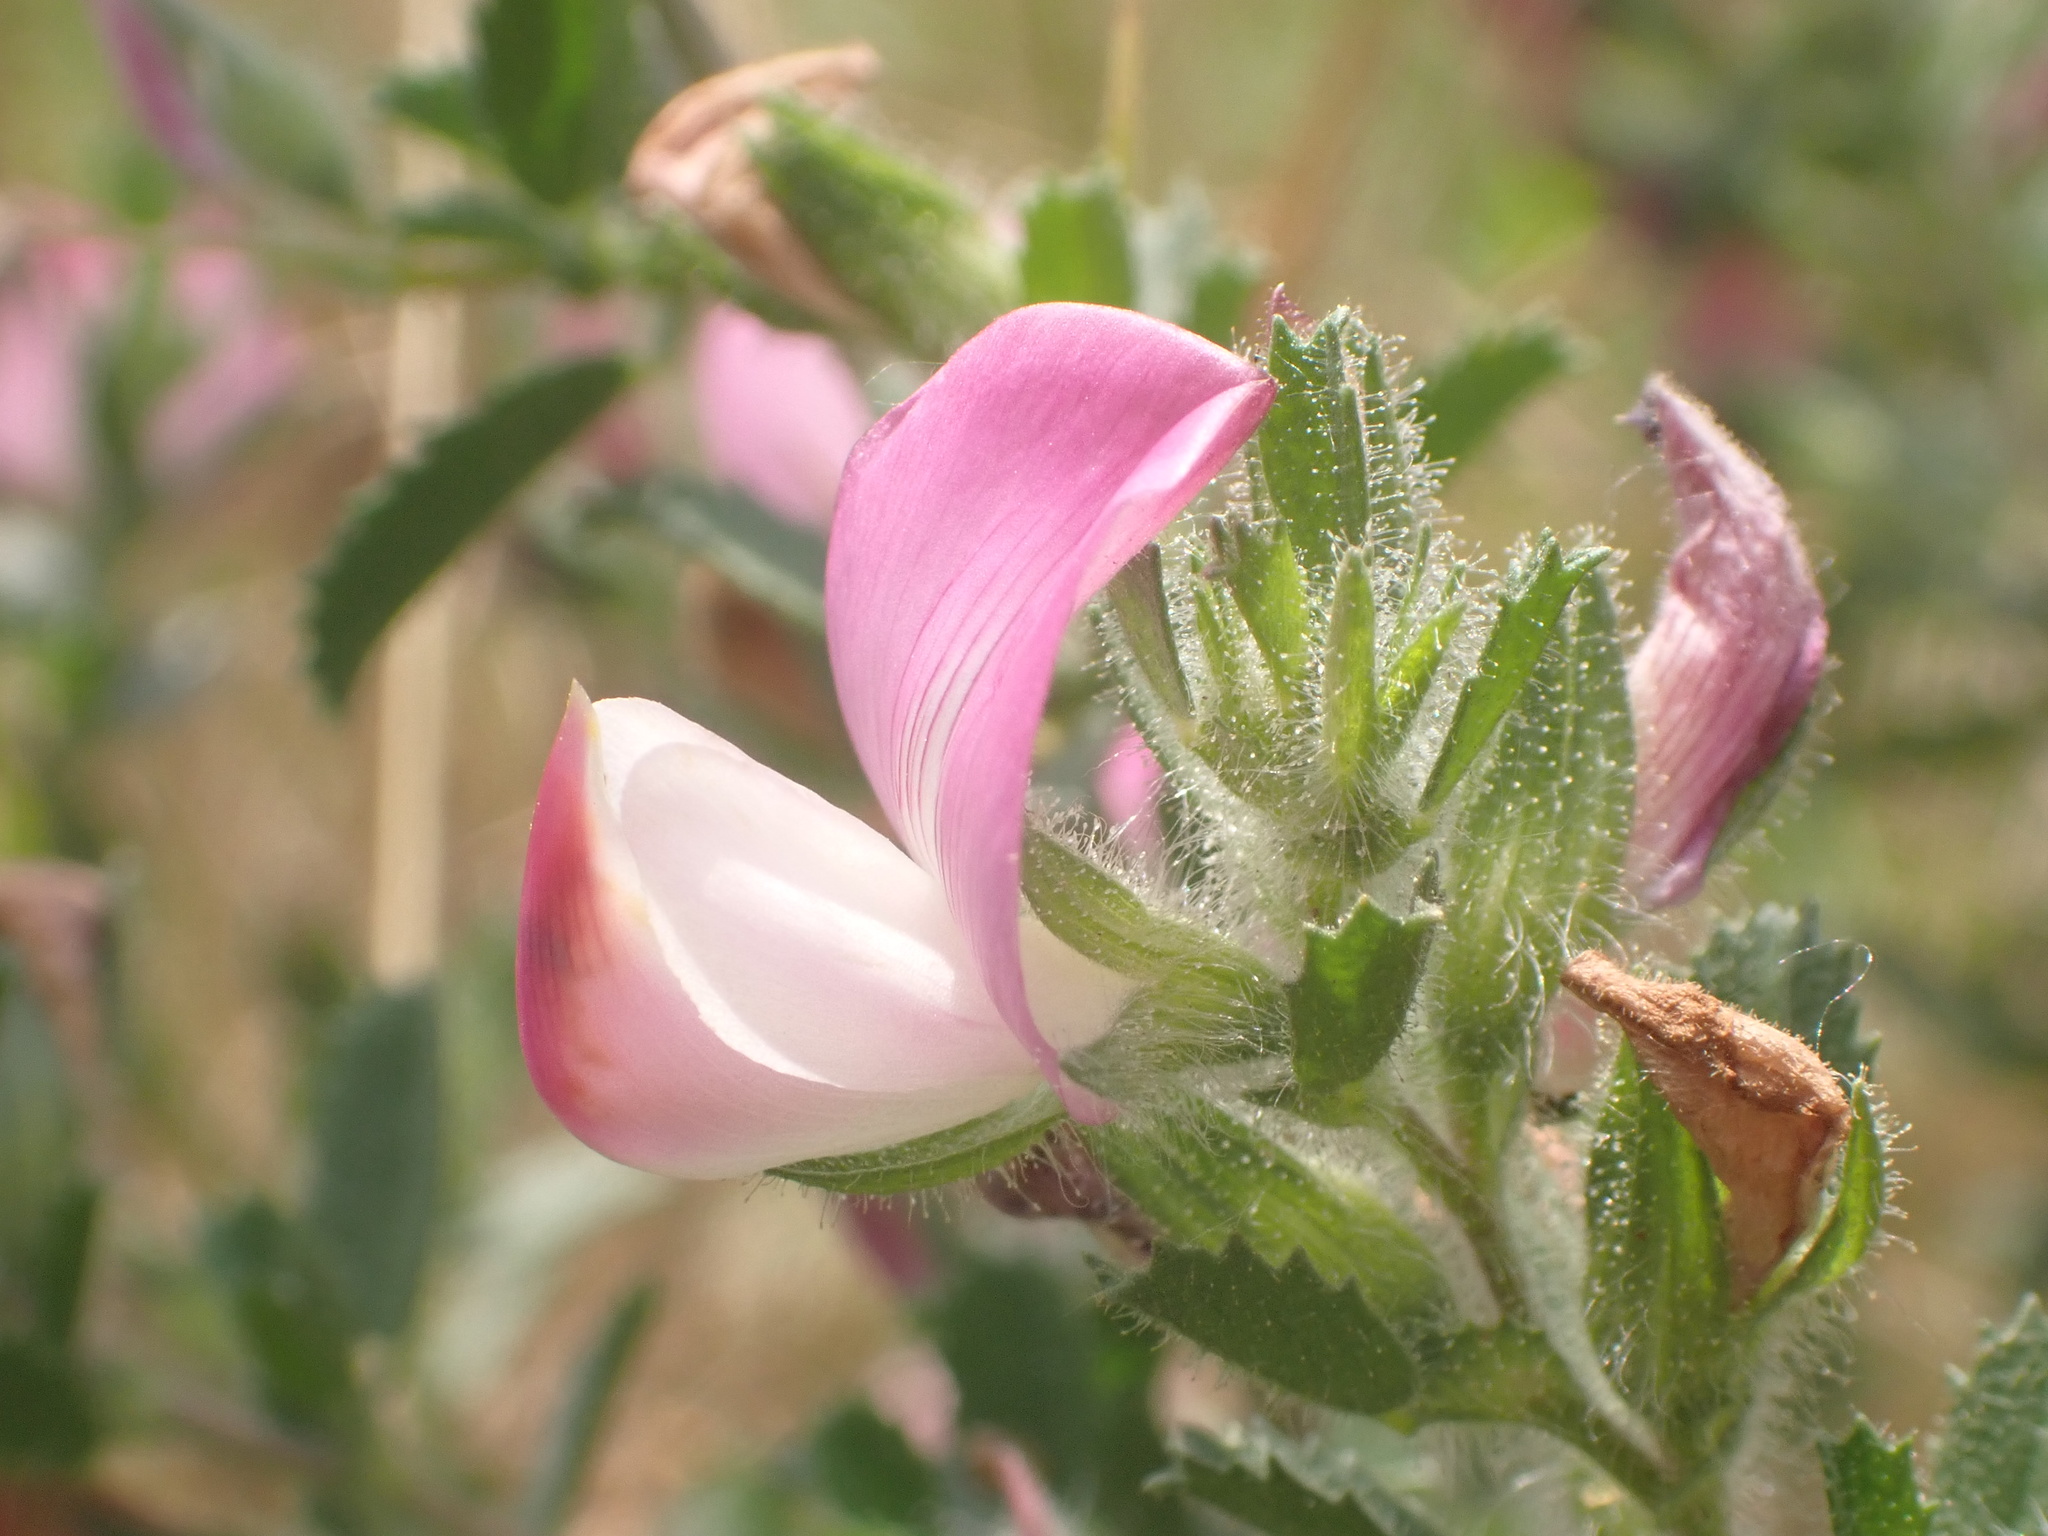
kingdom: Plantae
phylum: Tracheophyta
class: Magnoliopsida
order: Fabales
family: Fabaceae
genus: Ononis
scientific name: Ononis spinosa
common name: Spiny restharrow
